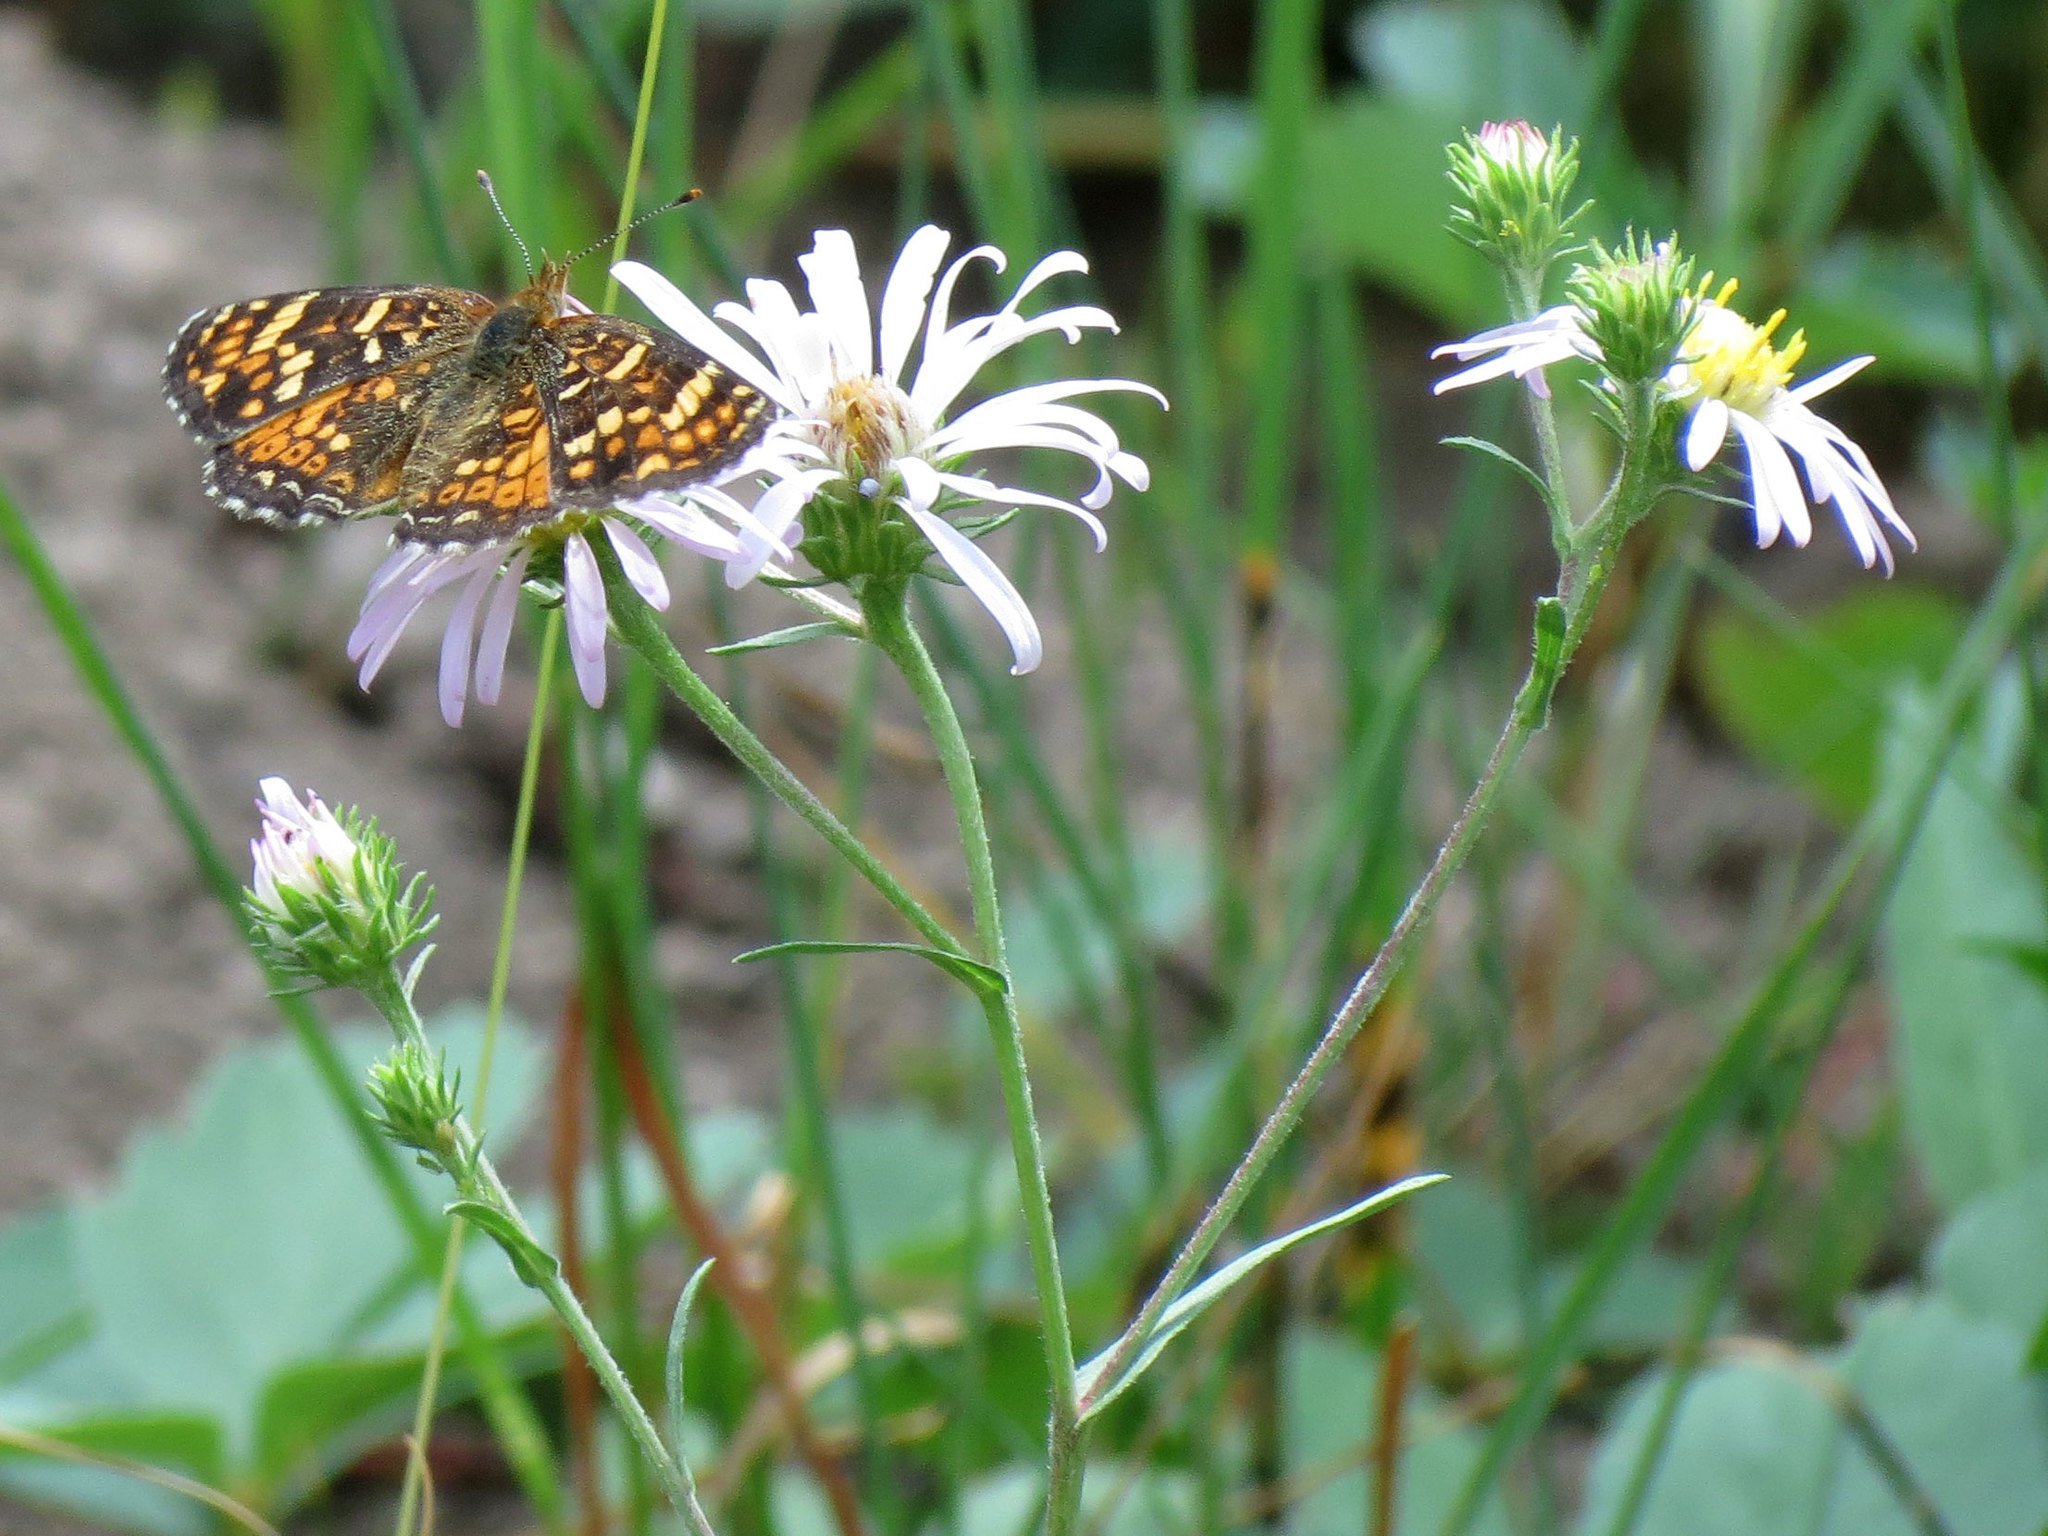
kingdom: Animalia
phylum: Arthropoda
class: Insecta
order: Lepidoptera
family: Nymphalidae
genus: Phyciodes
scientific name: Phyciodes tharos
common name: Pearl crescent
